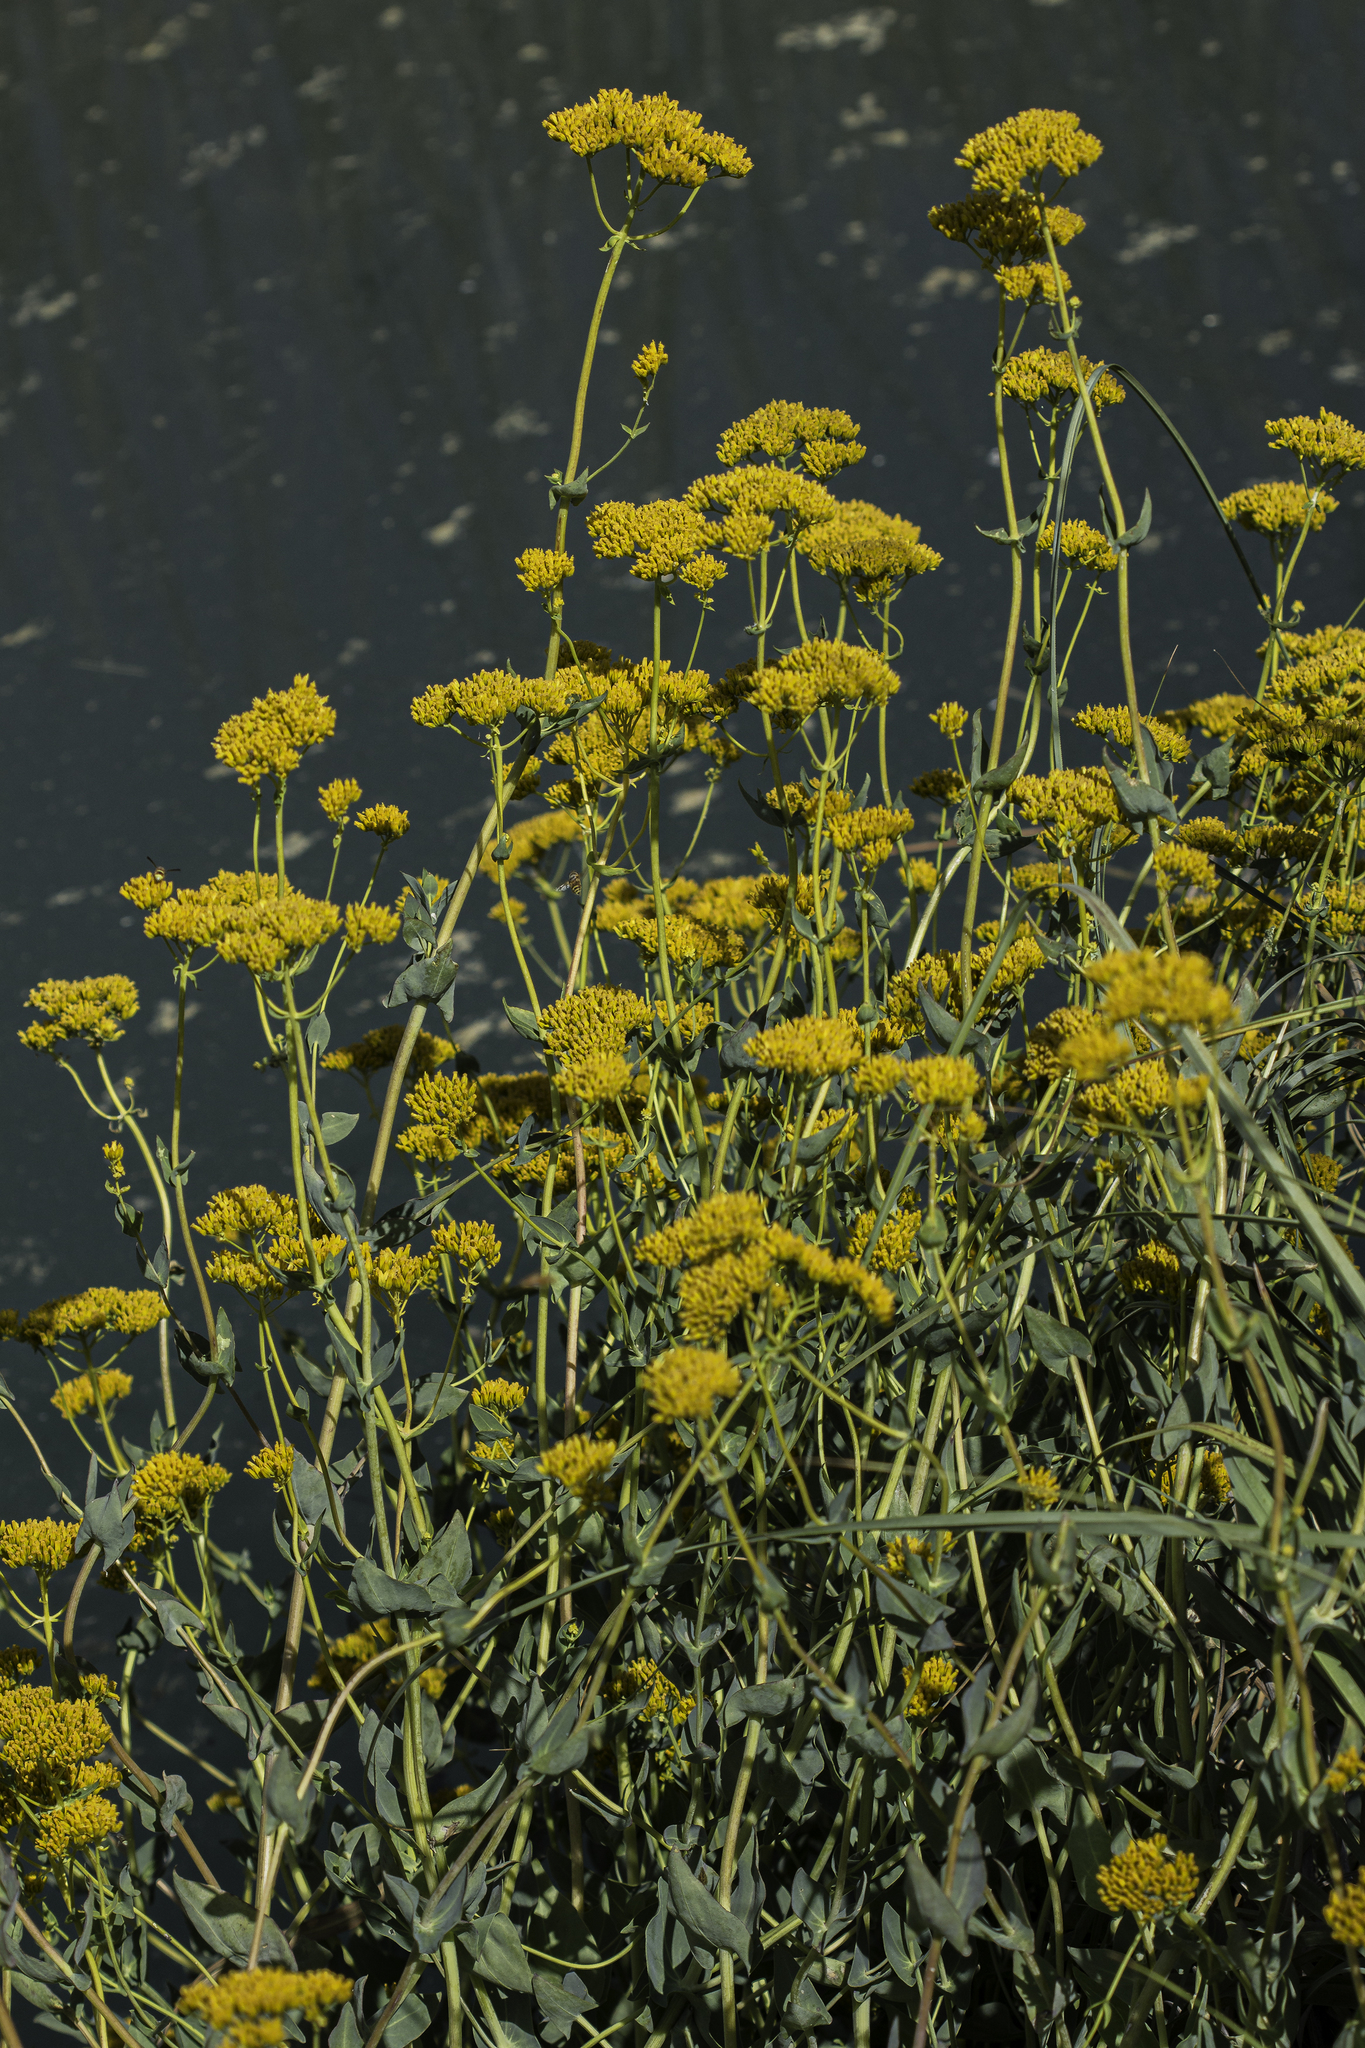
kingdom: Plantae
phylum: Tracheophyta
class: Magnoliopsida
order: Asterales
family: Asteraceae
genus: Flaveria
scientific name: Flaveria chlorifolia
